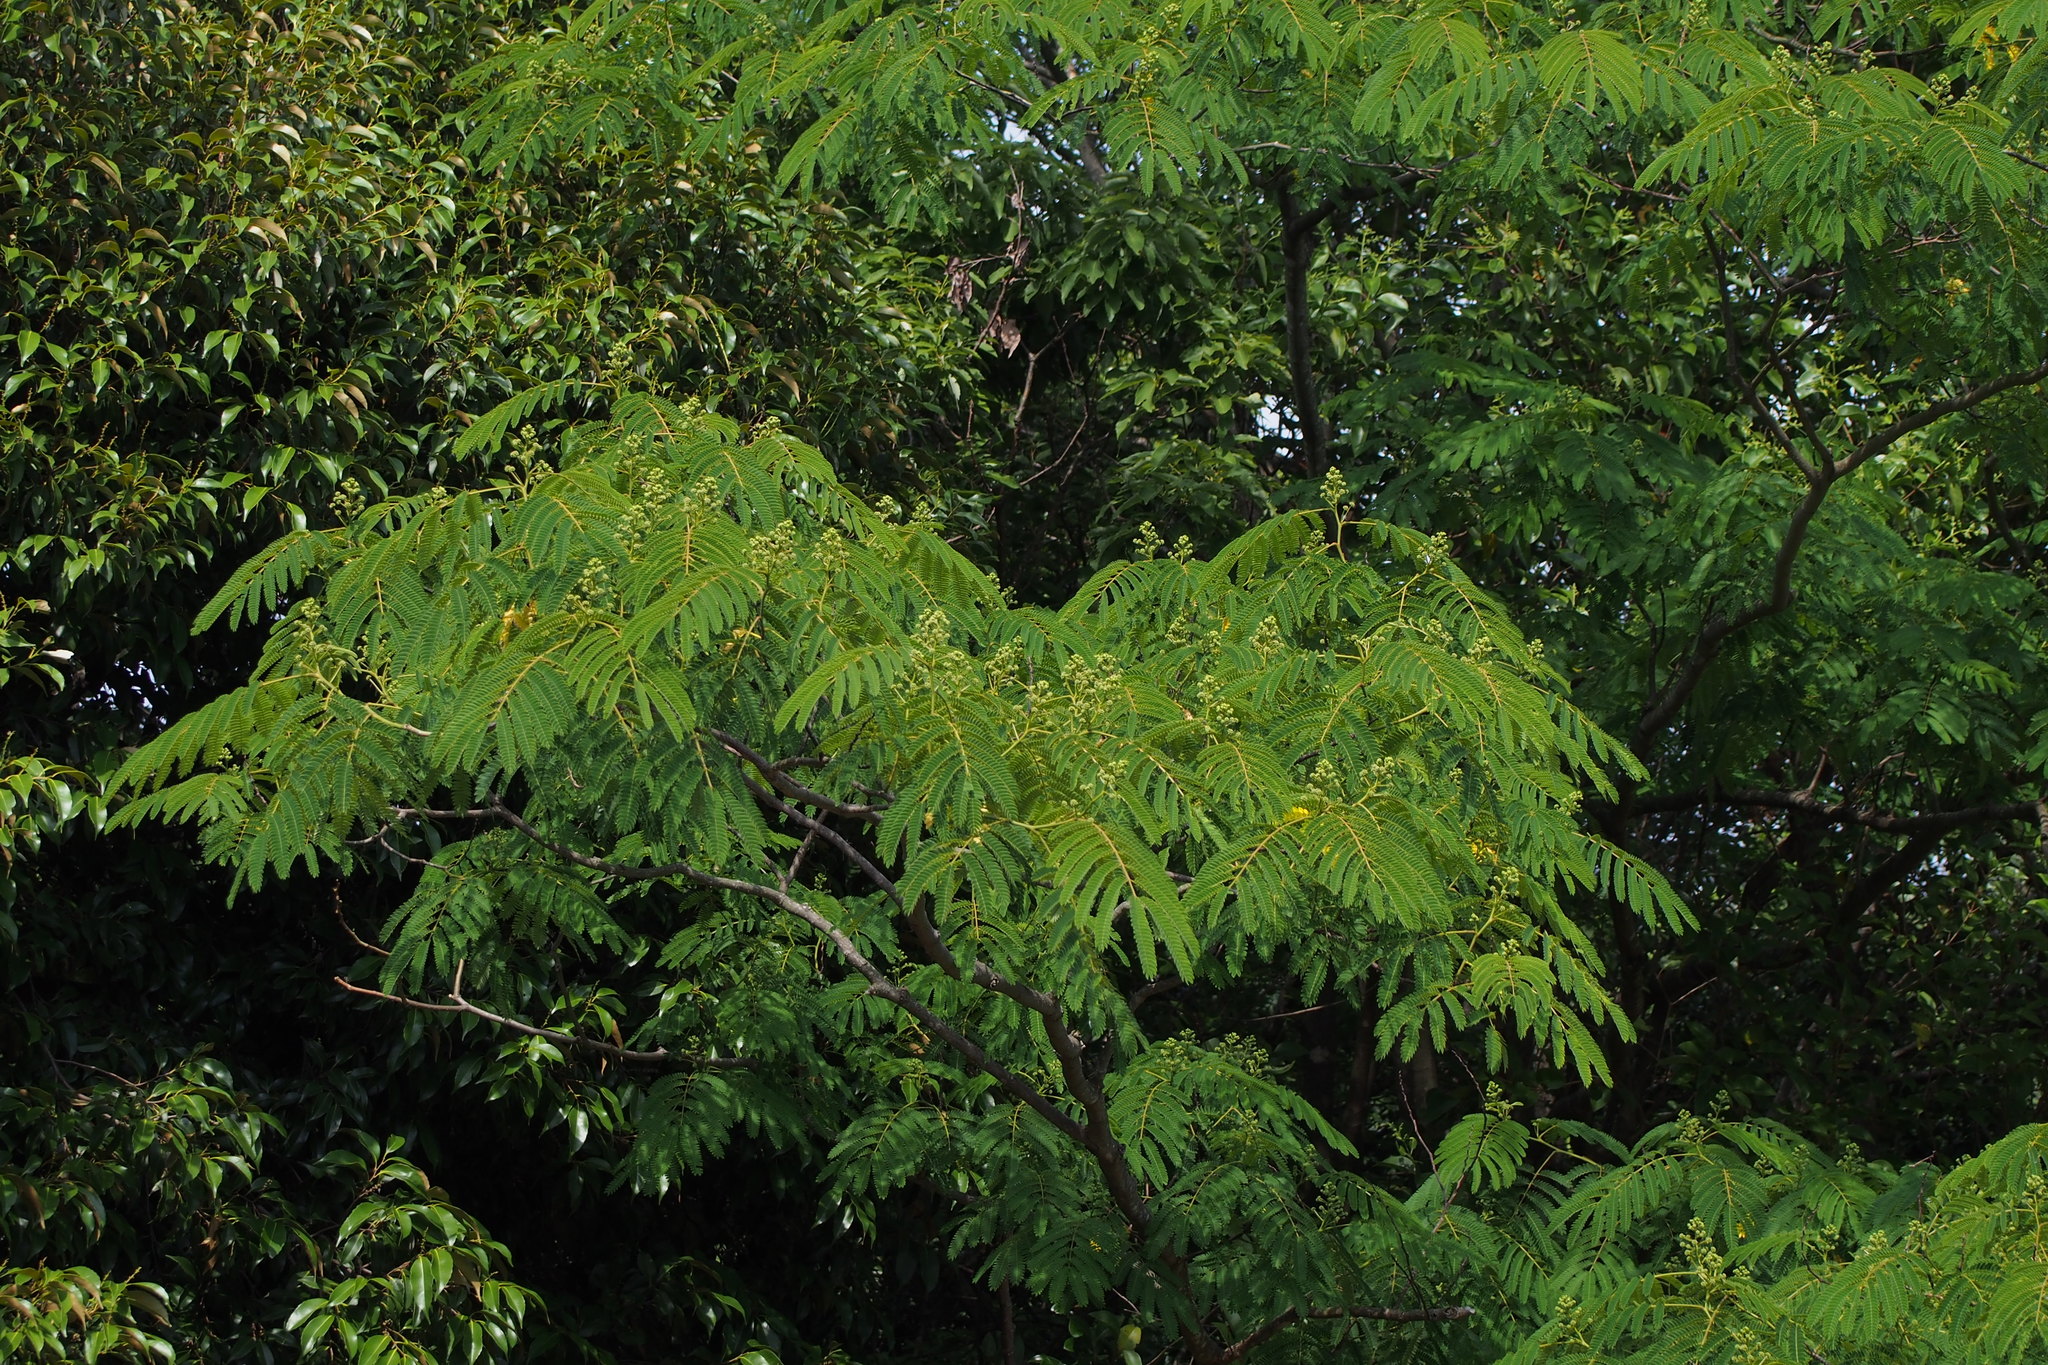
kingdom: Plantae
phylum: Tracheophyta
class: Magnoliopsida
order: Fabales
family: Fabaceae
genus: Albizia
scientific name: Albizia julibrissin
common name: Silktree
